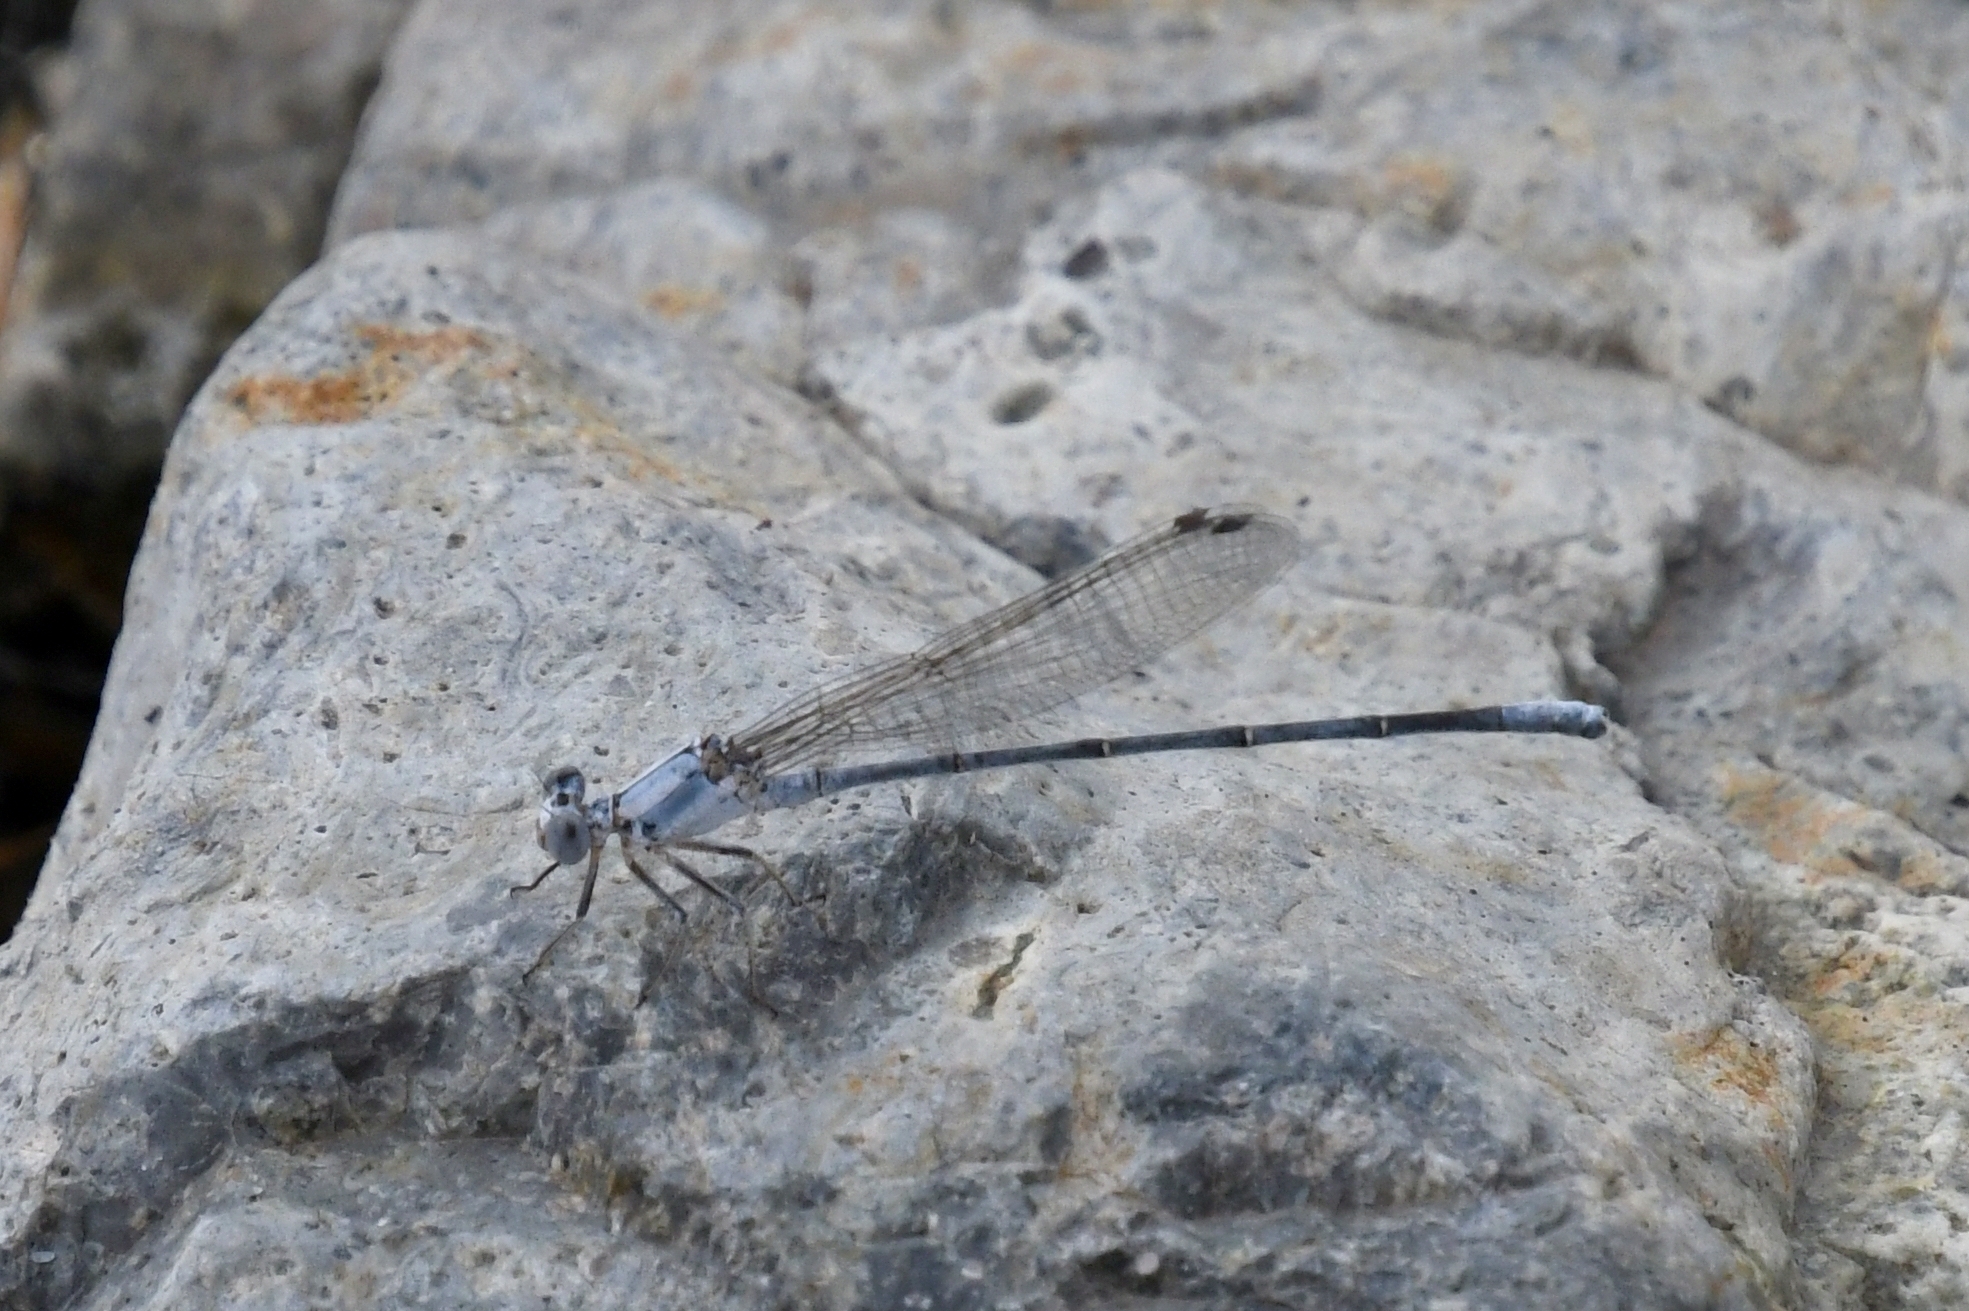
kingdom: Animalia
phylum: Arthropoda
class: Insecta
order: Odonata
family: Coenagrionidae
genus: Argia
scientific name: Argia moesta
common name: Powdered dancer
